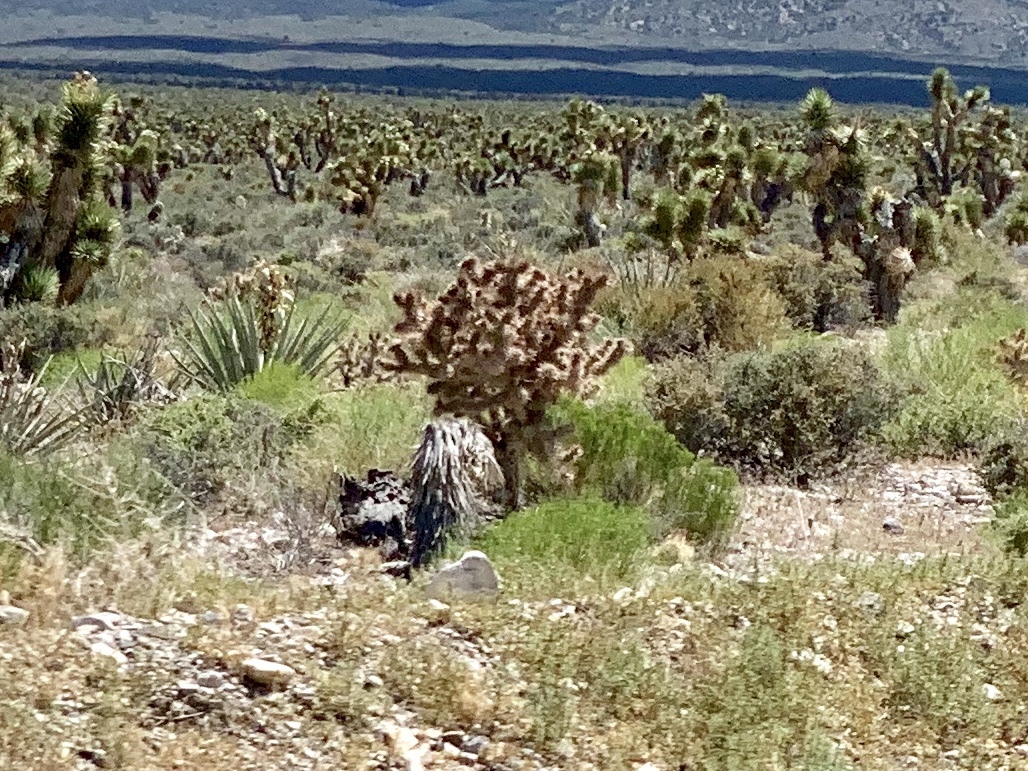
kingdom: Plantae
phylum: Tracheophyta
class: Magnoliopsida
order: Caryophyllales
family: Cactaceae
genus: Cylindropuntia
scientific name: Cylindropuntia echinocarpa
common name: Ground cholla
